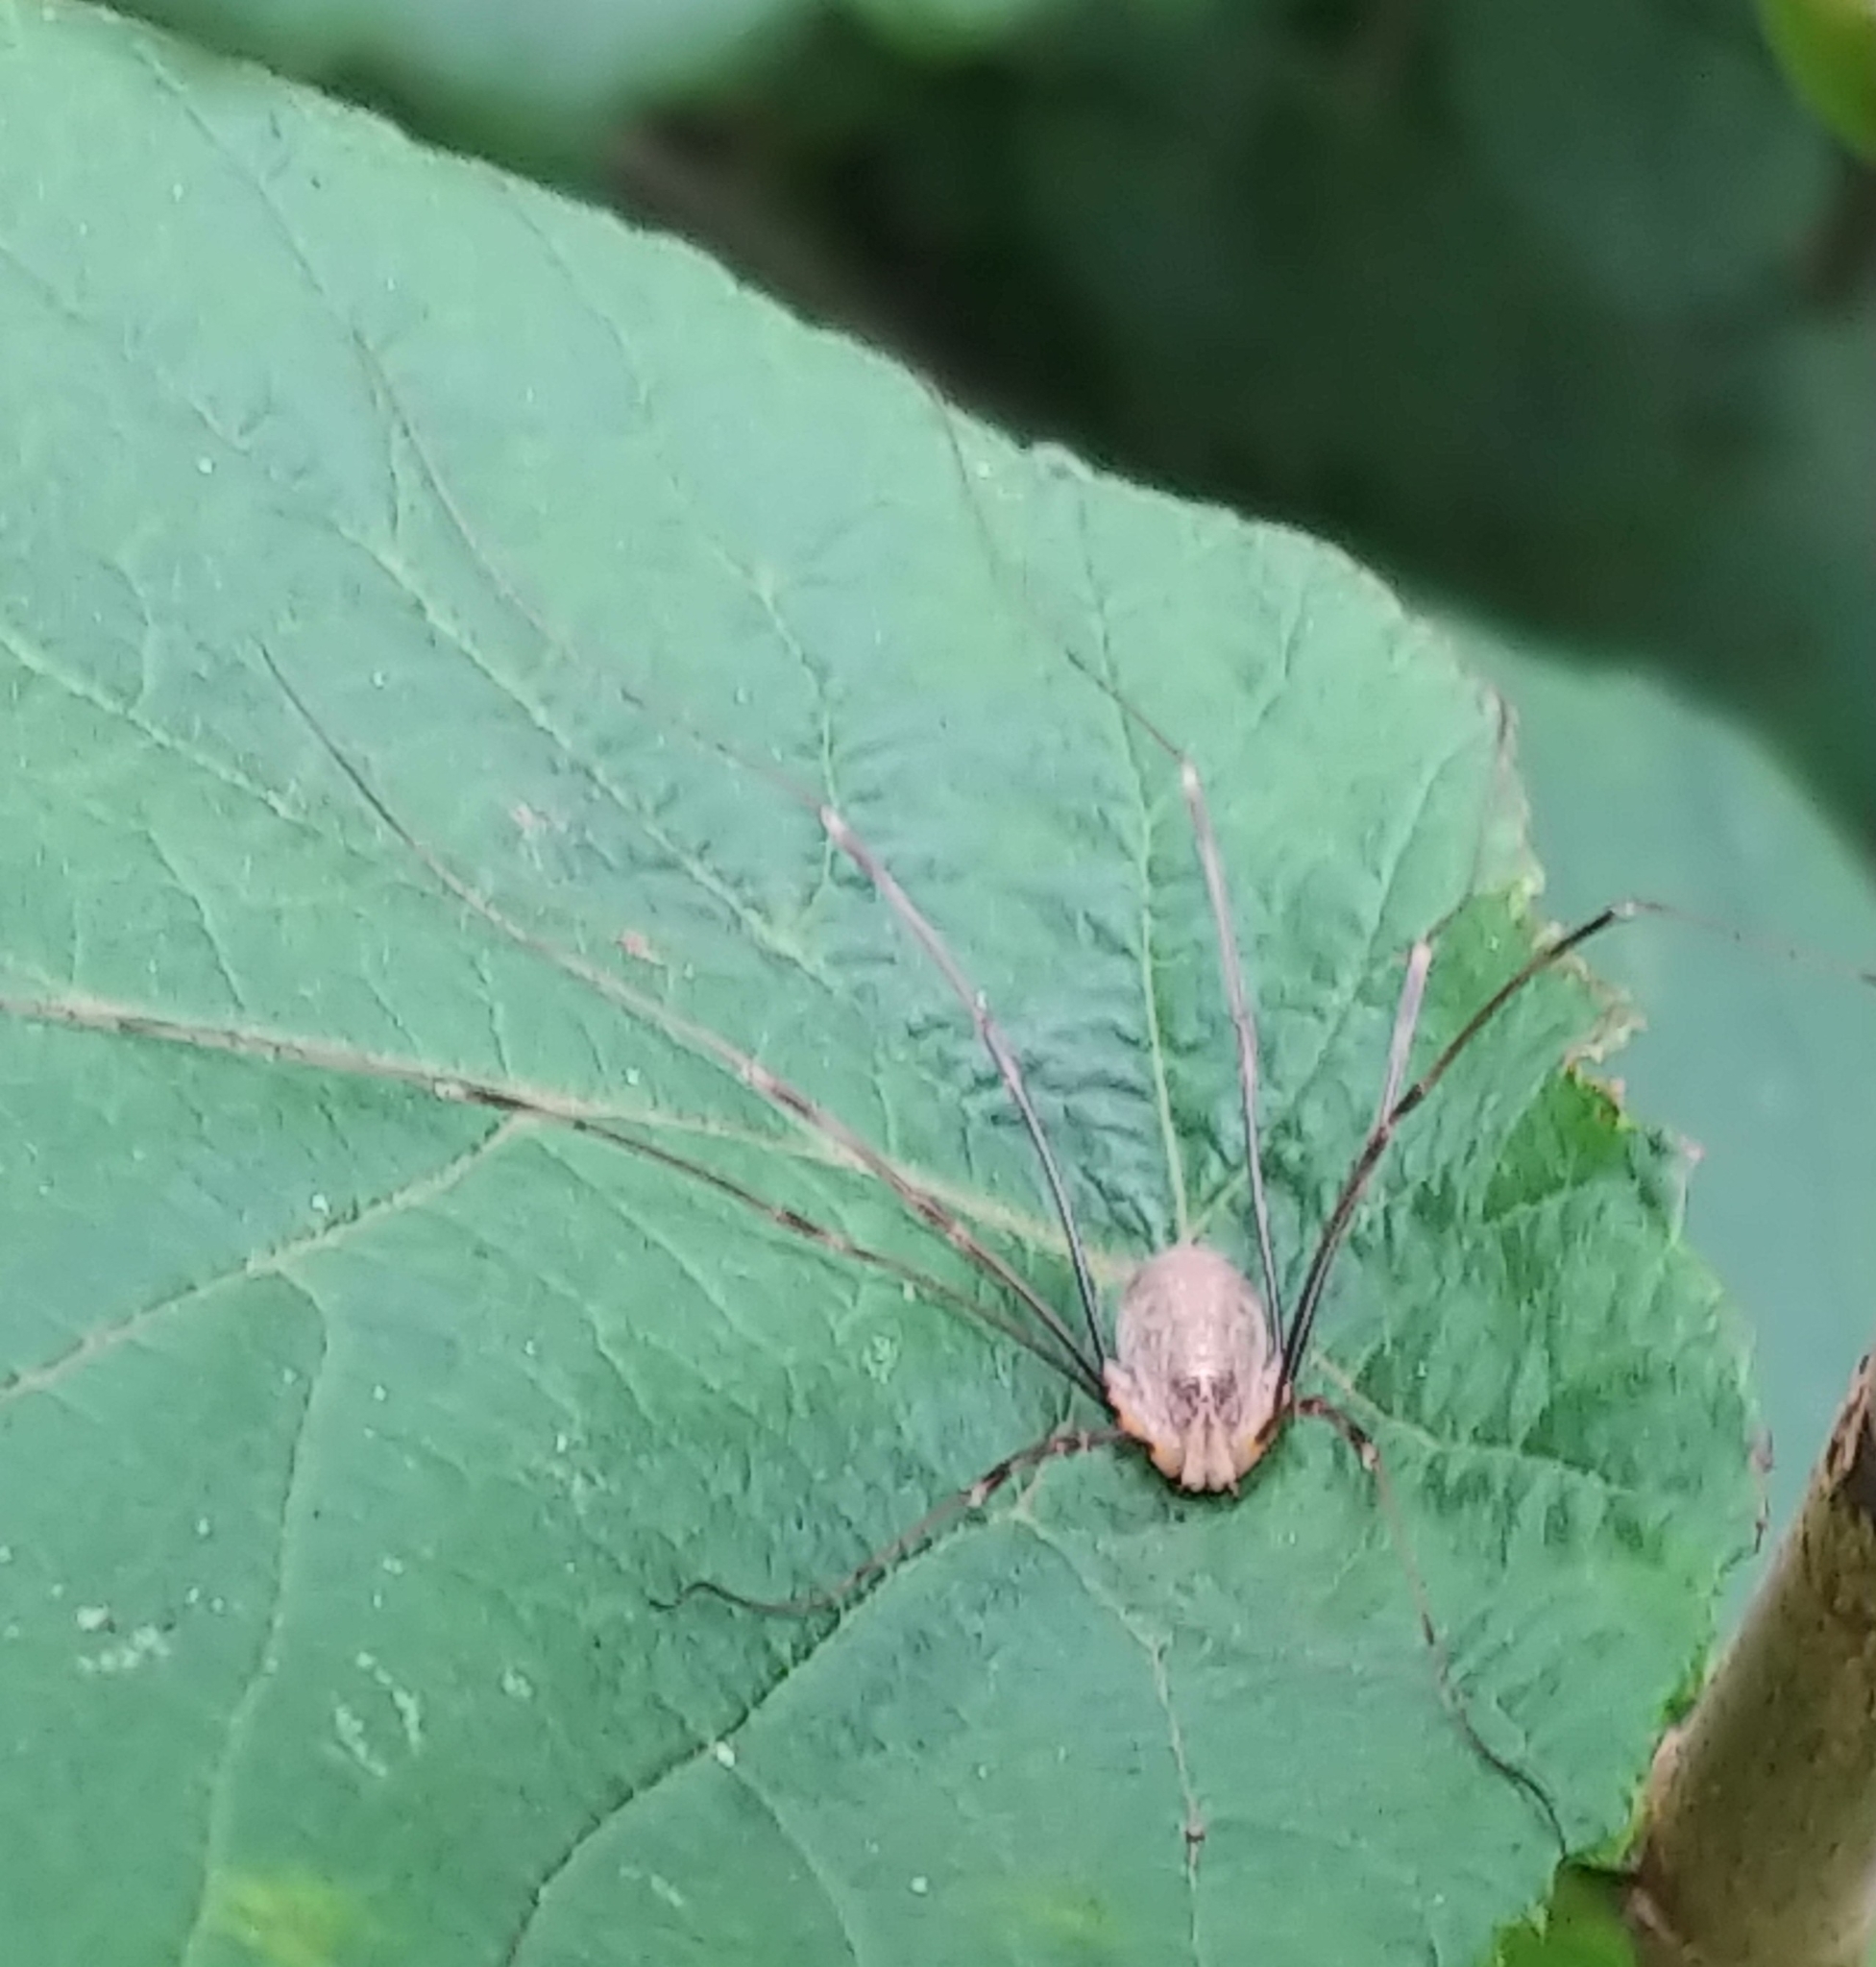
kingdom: Animalia
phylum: Arthropoda
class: Arachnida
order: Opiliones
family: Phalangiidae
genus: Opilio
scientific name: Opilio canestrinii
